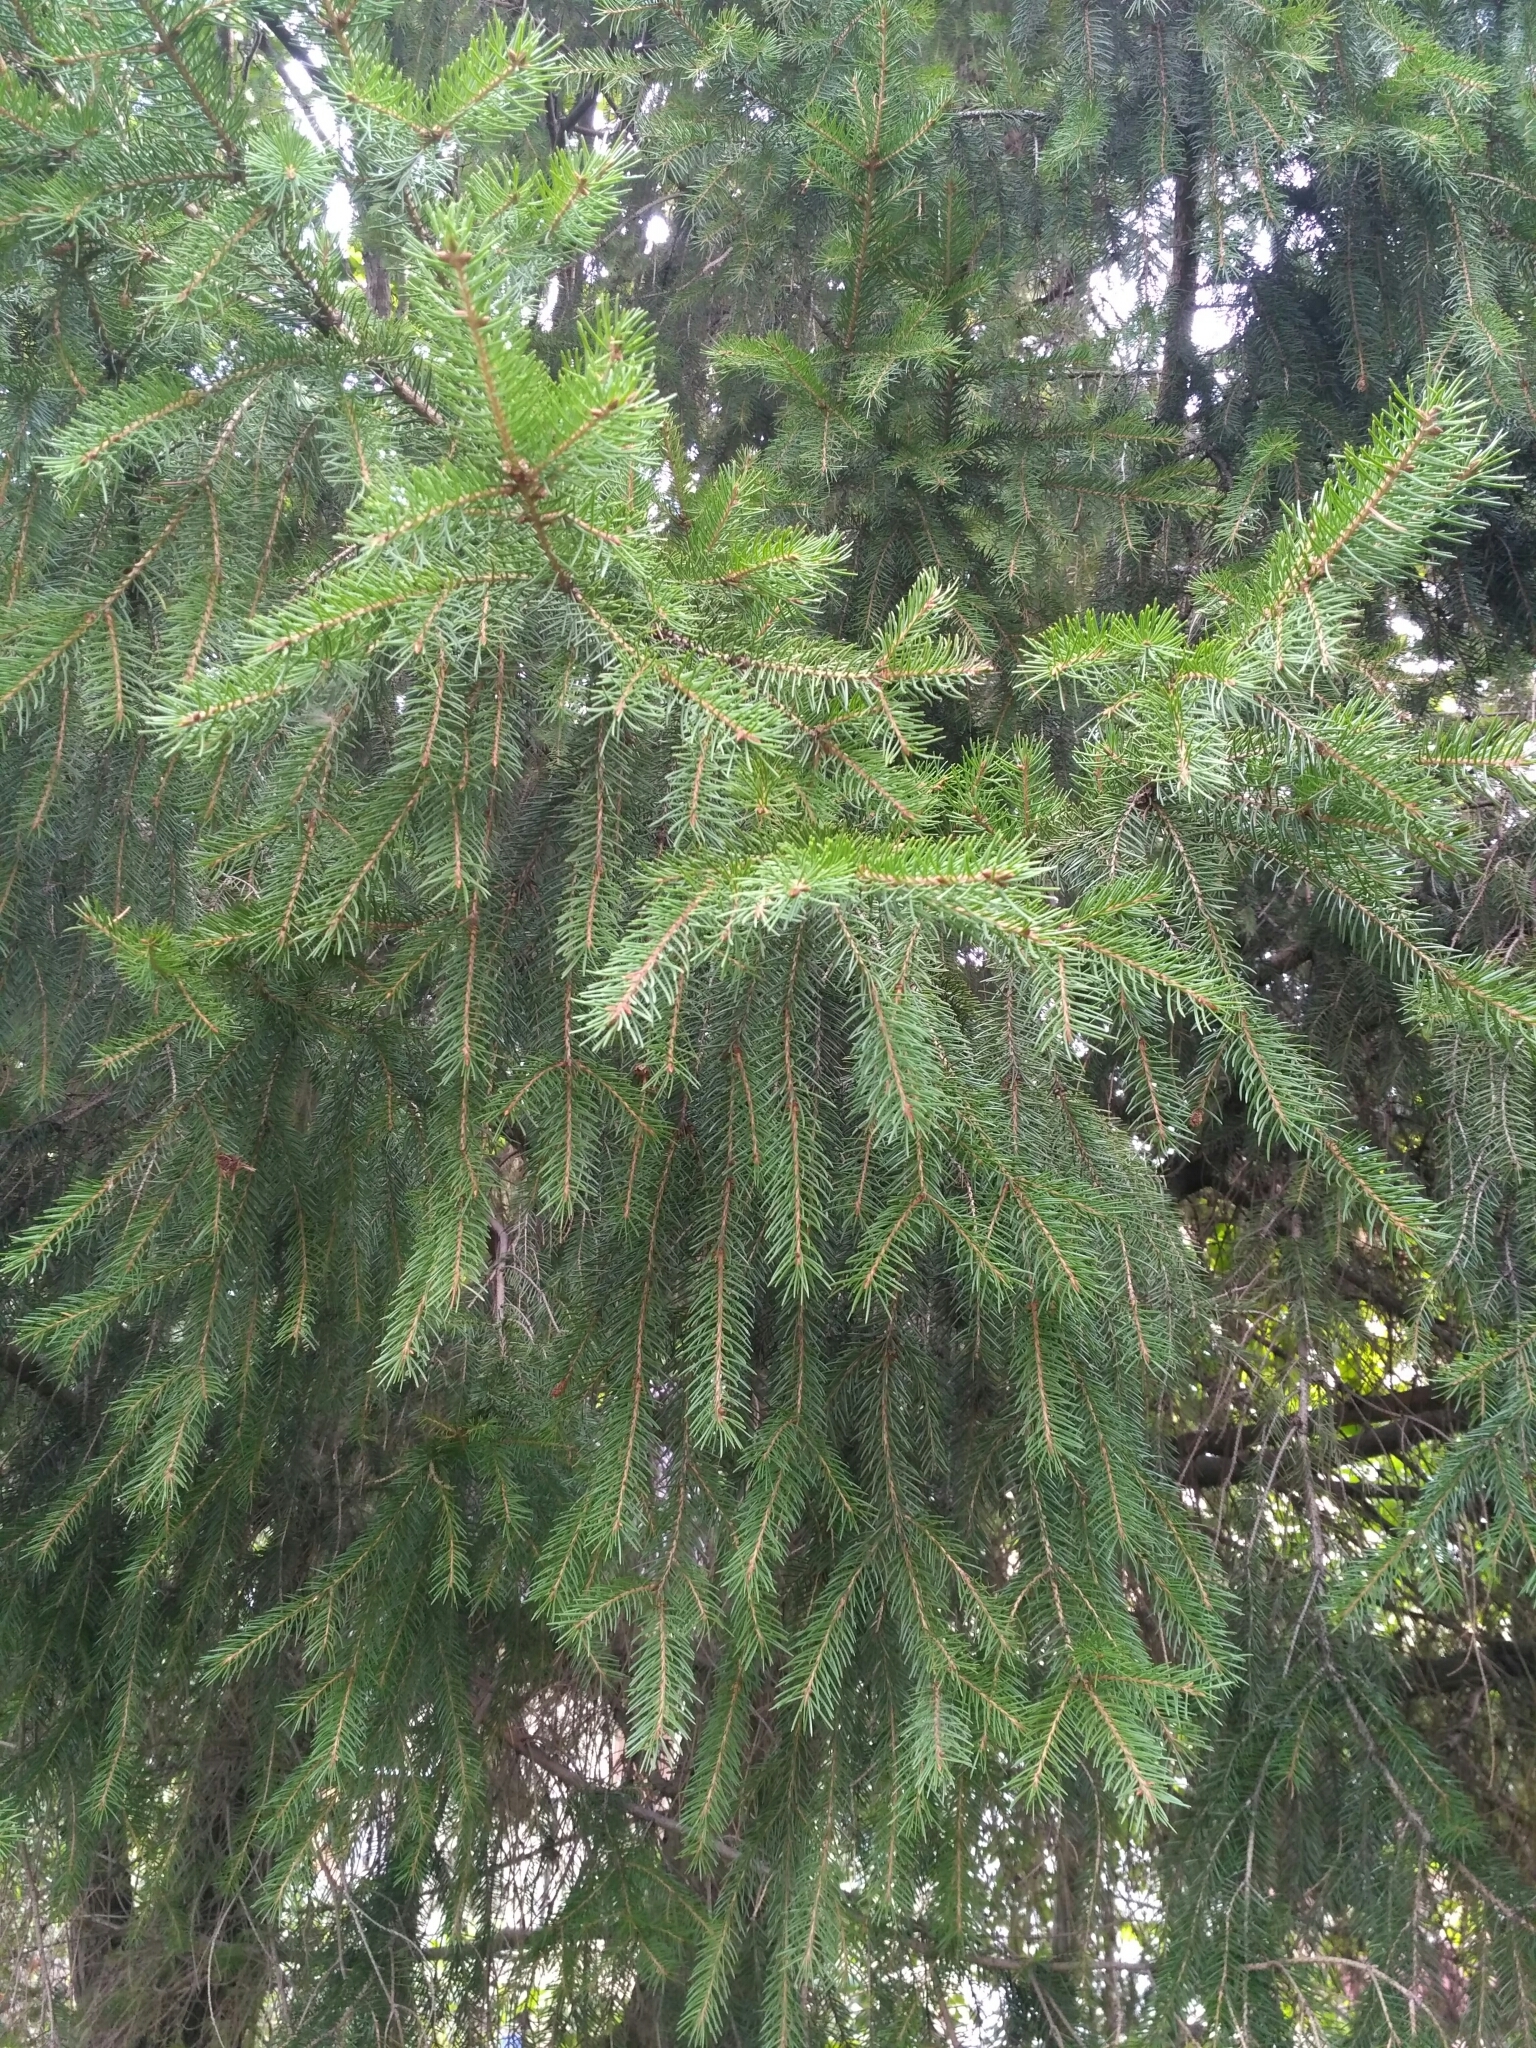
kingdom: Plantae
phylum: Tracheophyta
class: Pinopsida
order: Pinales
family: Pinaceae
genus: Picea
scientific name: Picea abies
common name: Norway spruce
